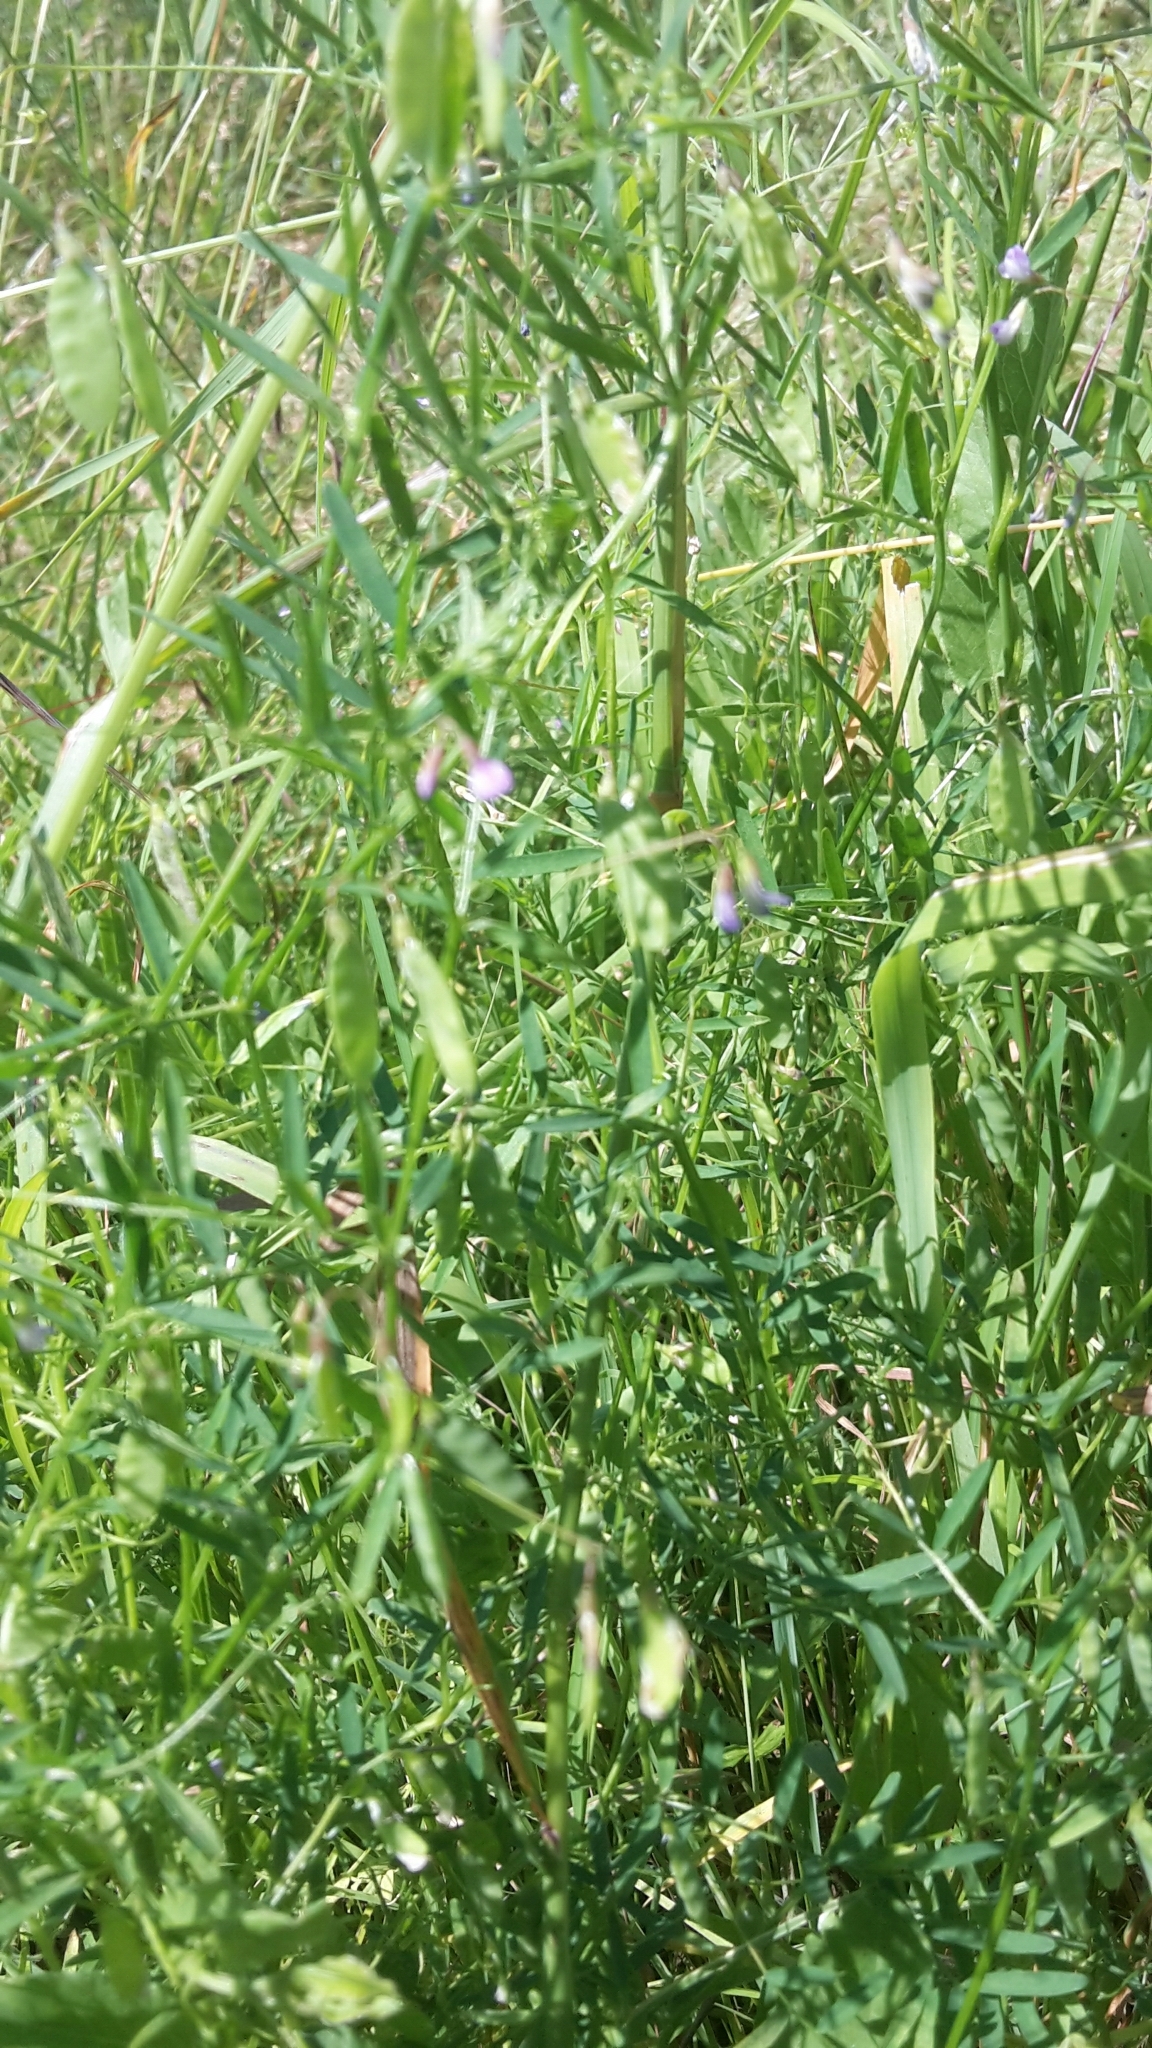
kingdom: Plantae
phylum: Tracheophyta
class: Magnoliopsida
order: Fabales
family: Fabaceae
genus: Vicia
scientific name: Vicia tetrasperma
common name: Smooth tare
